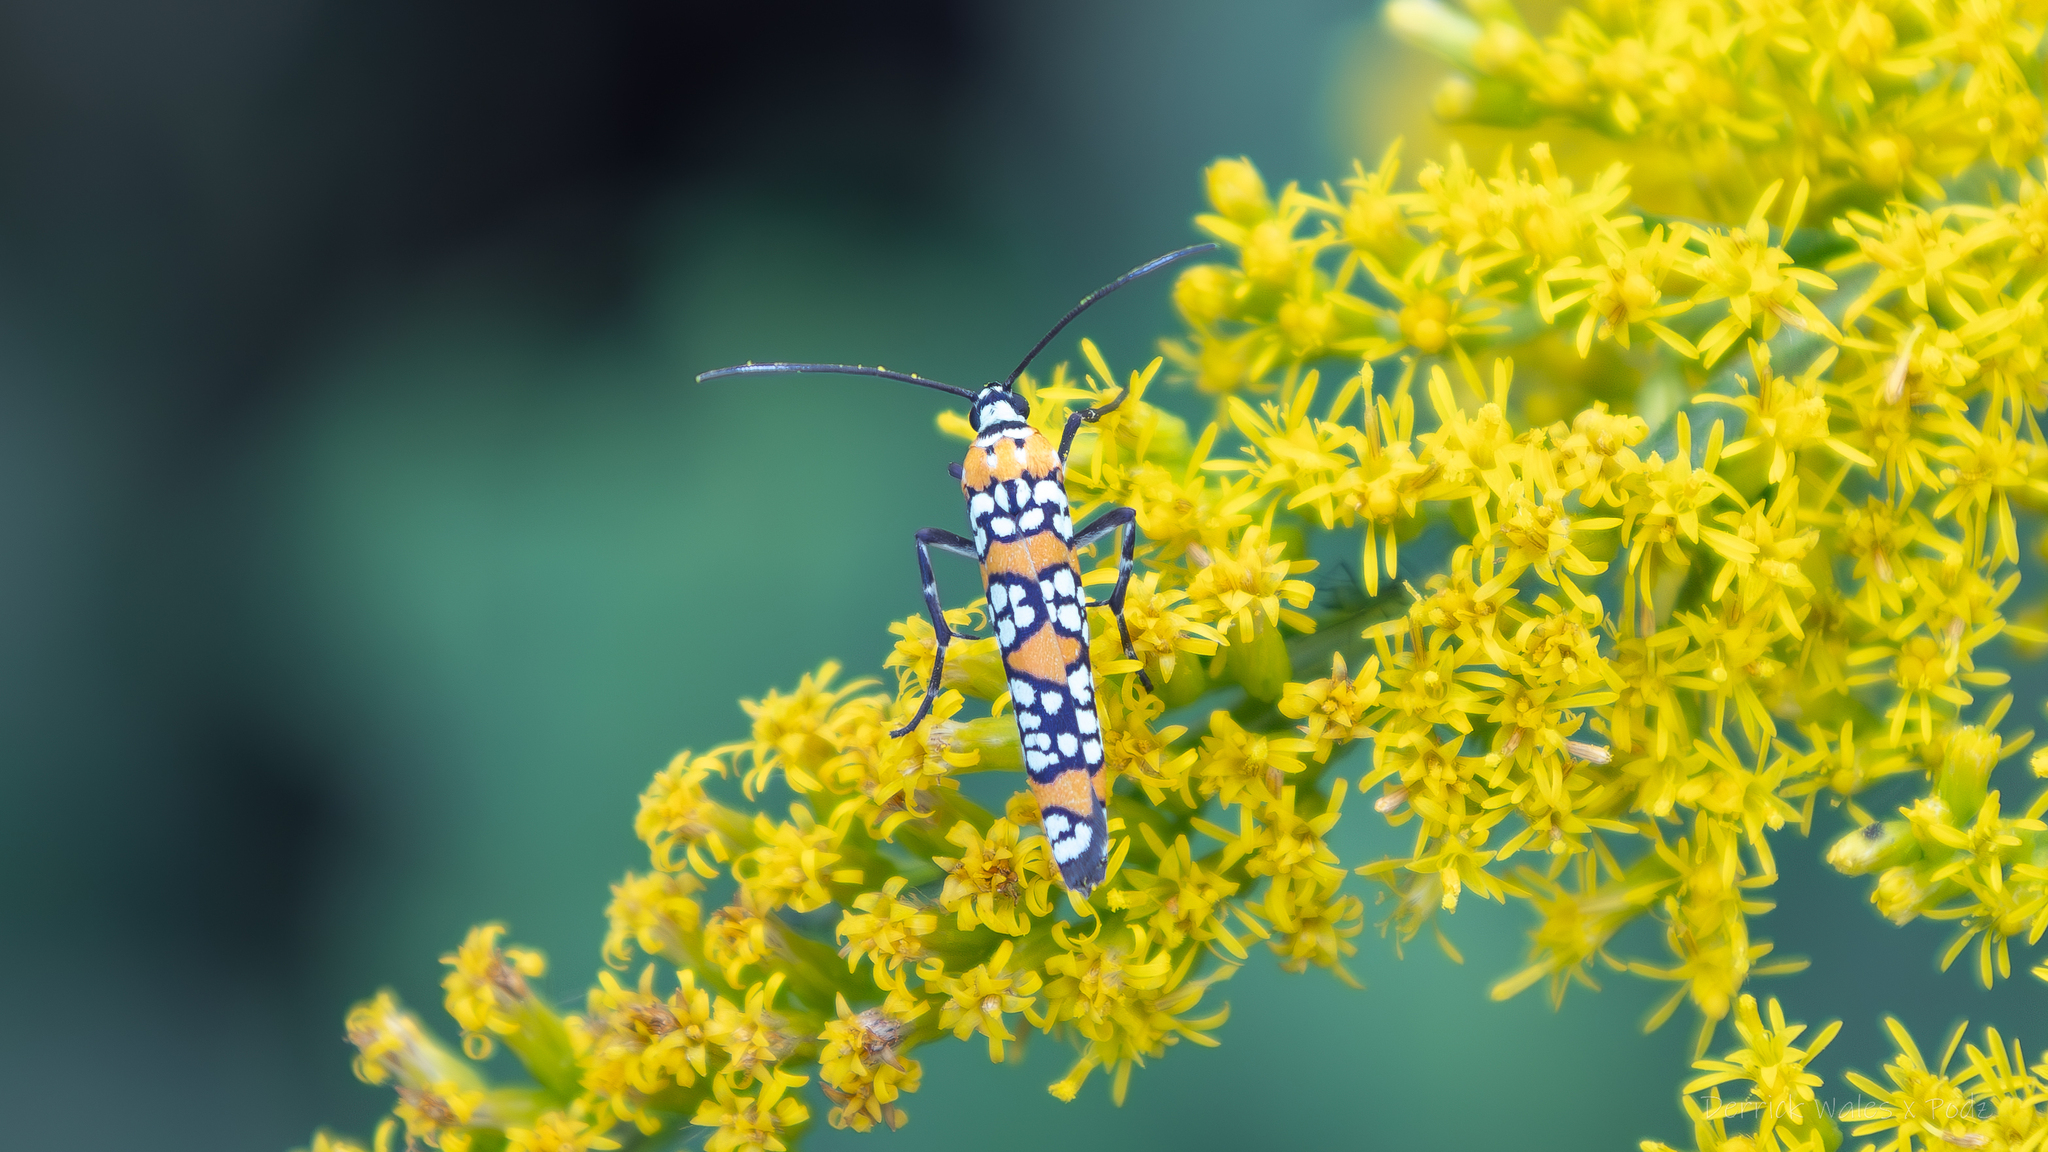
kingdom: Animalia
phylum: Arthropoda
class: Insecta
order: Lepidoptera
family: Attevidae
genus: Atteva
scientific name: Atteva punctella
